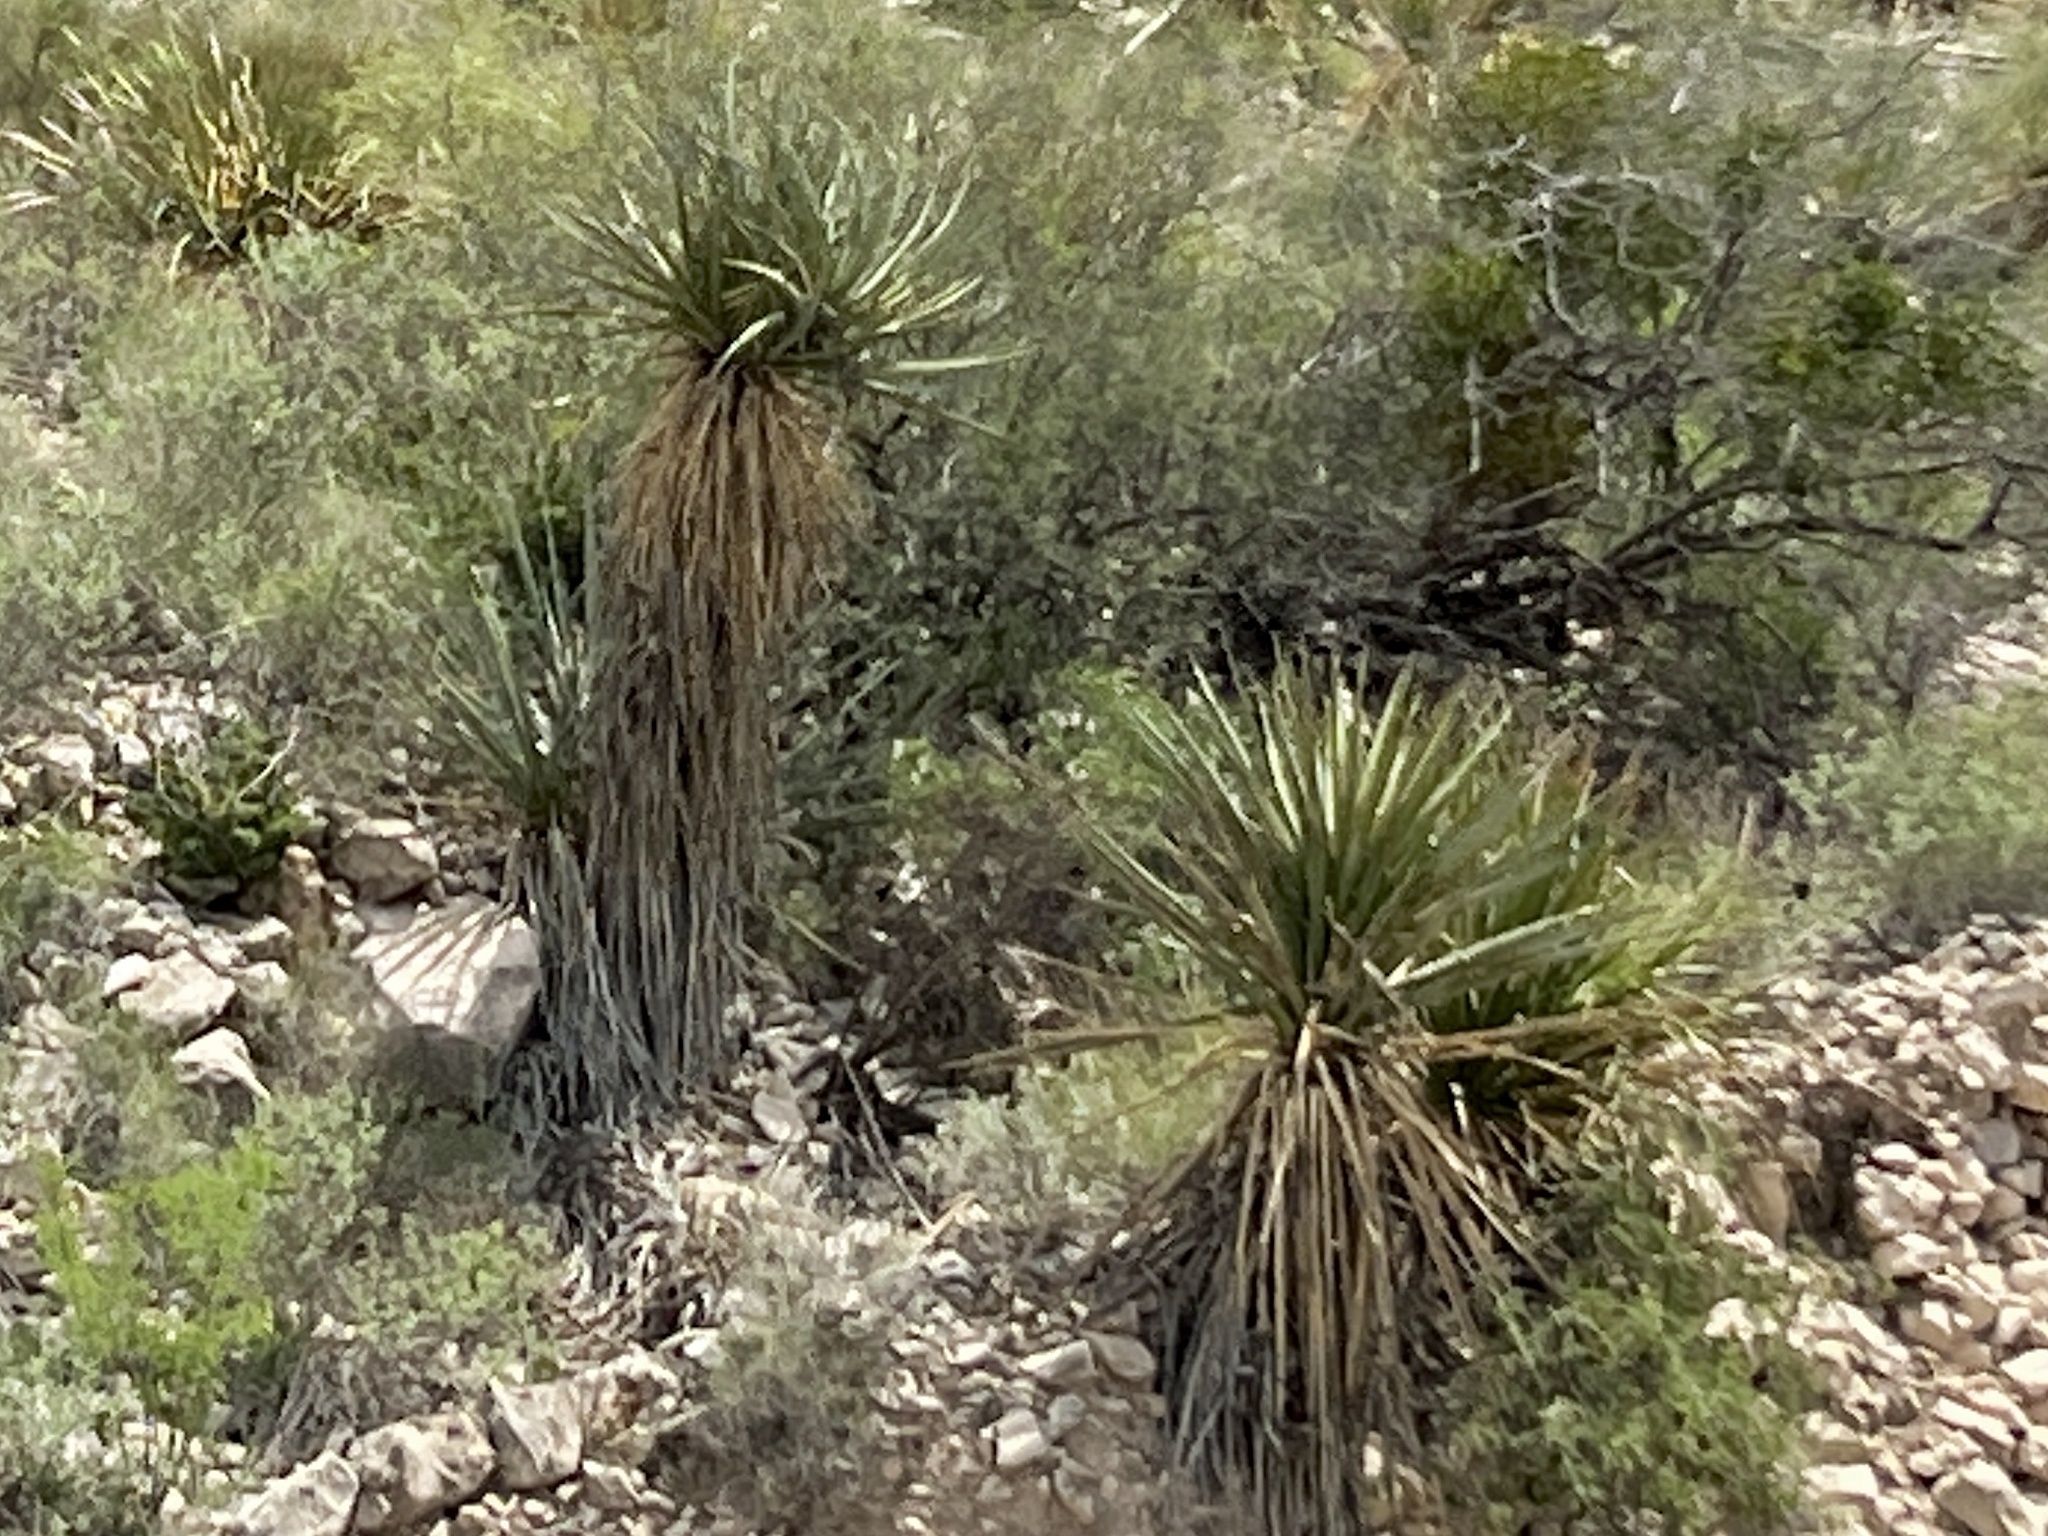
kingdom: Plantae
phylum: Tracheophyta
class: Liliopsida
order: Asparagales
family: Asparagaceae
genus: Yucca
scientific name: Yucca treculiana
